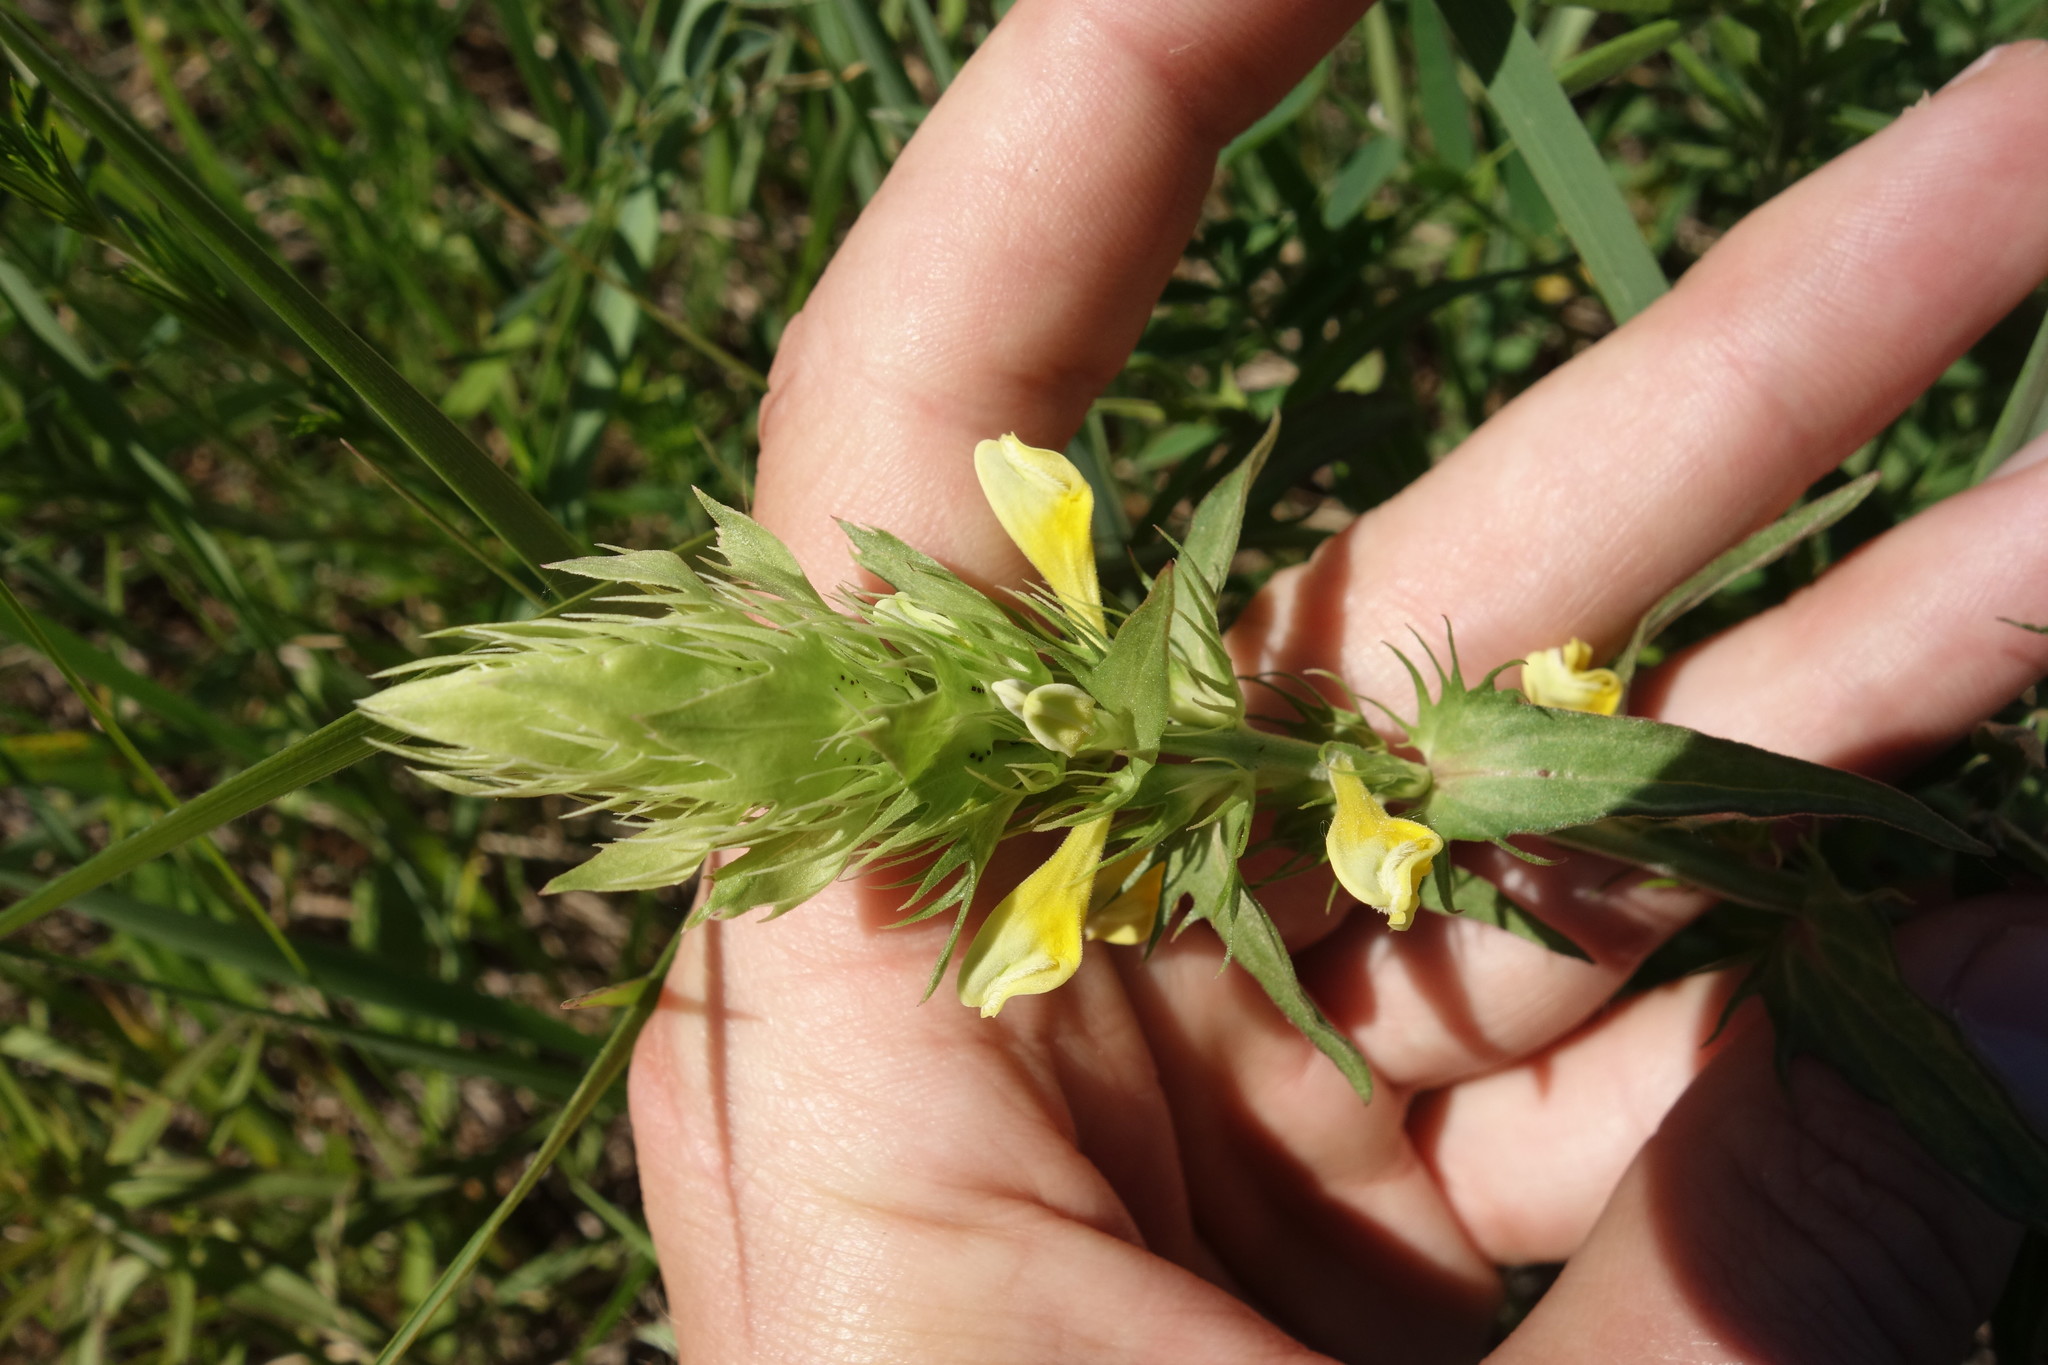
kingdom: Plantae
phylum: Tracheophyta
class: Magnoliopsida
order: Lamiales
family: Orobanchaceae
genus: Melampyrum
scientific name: Melampyrum arvense
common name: Field cow-wheat
